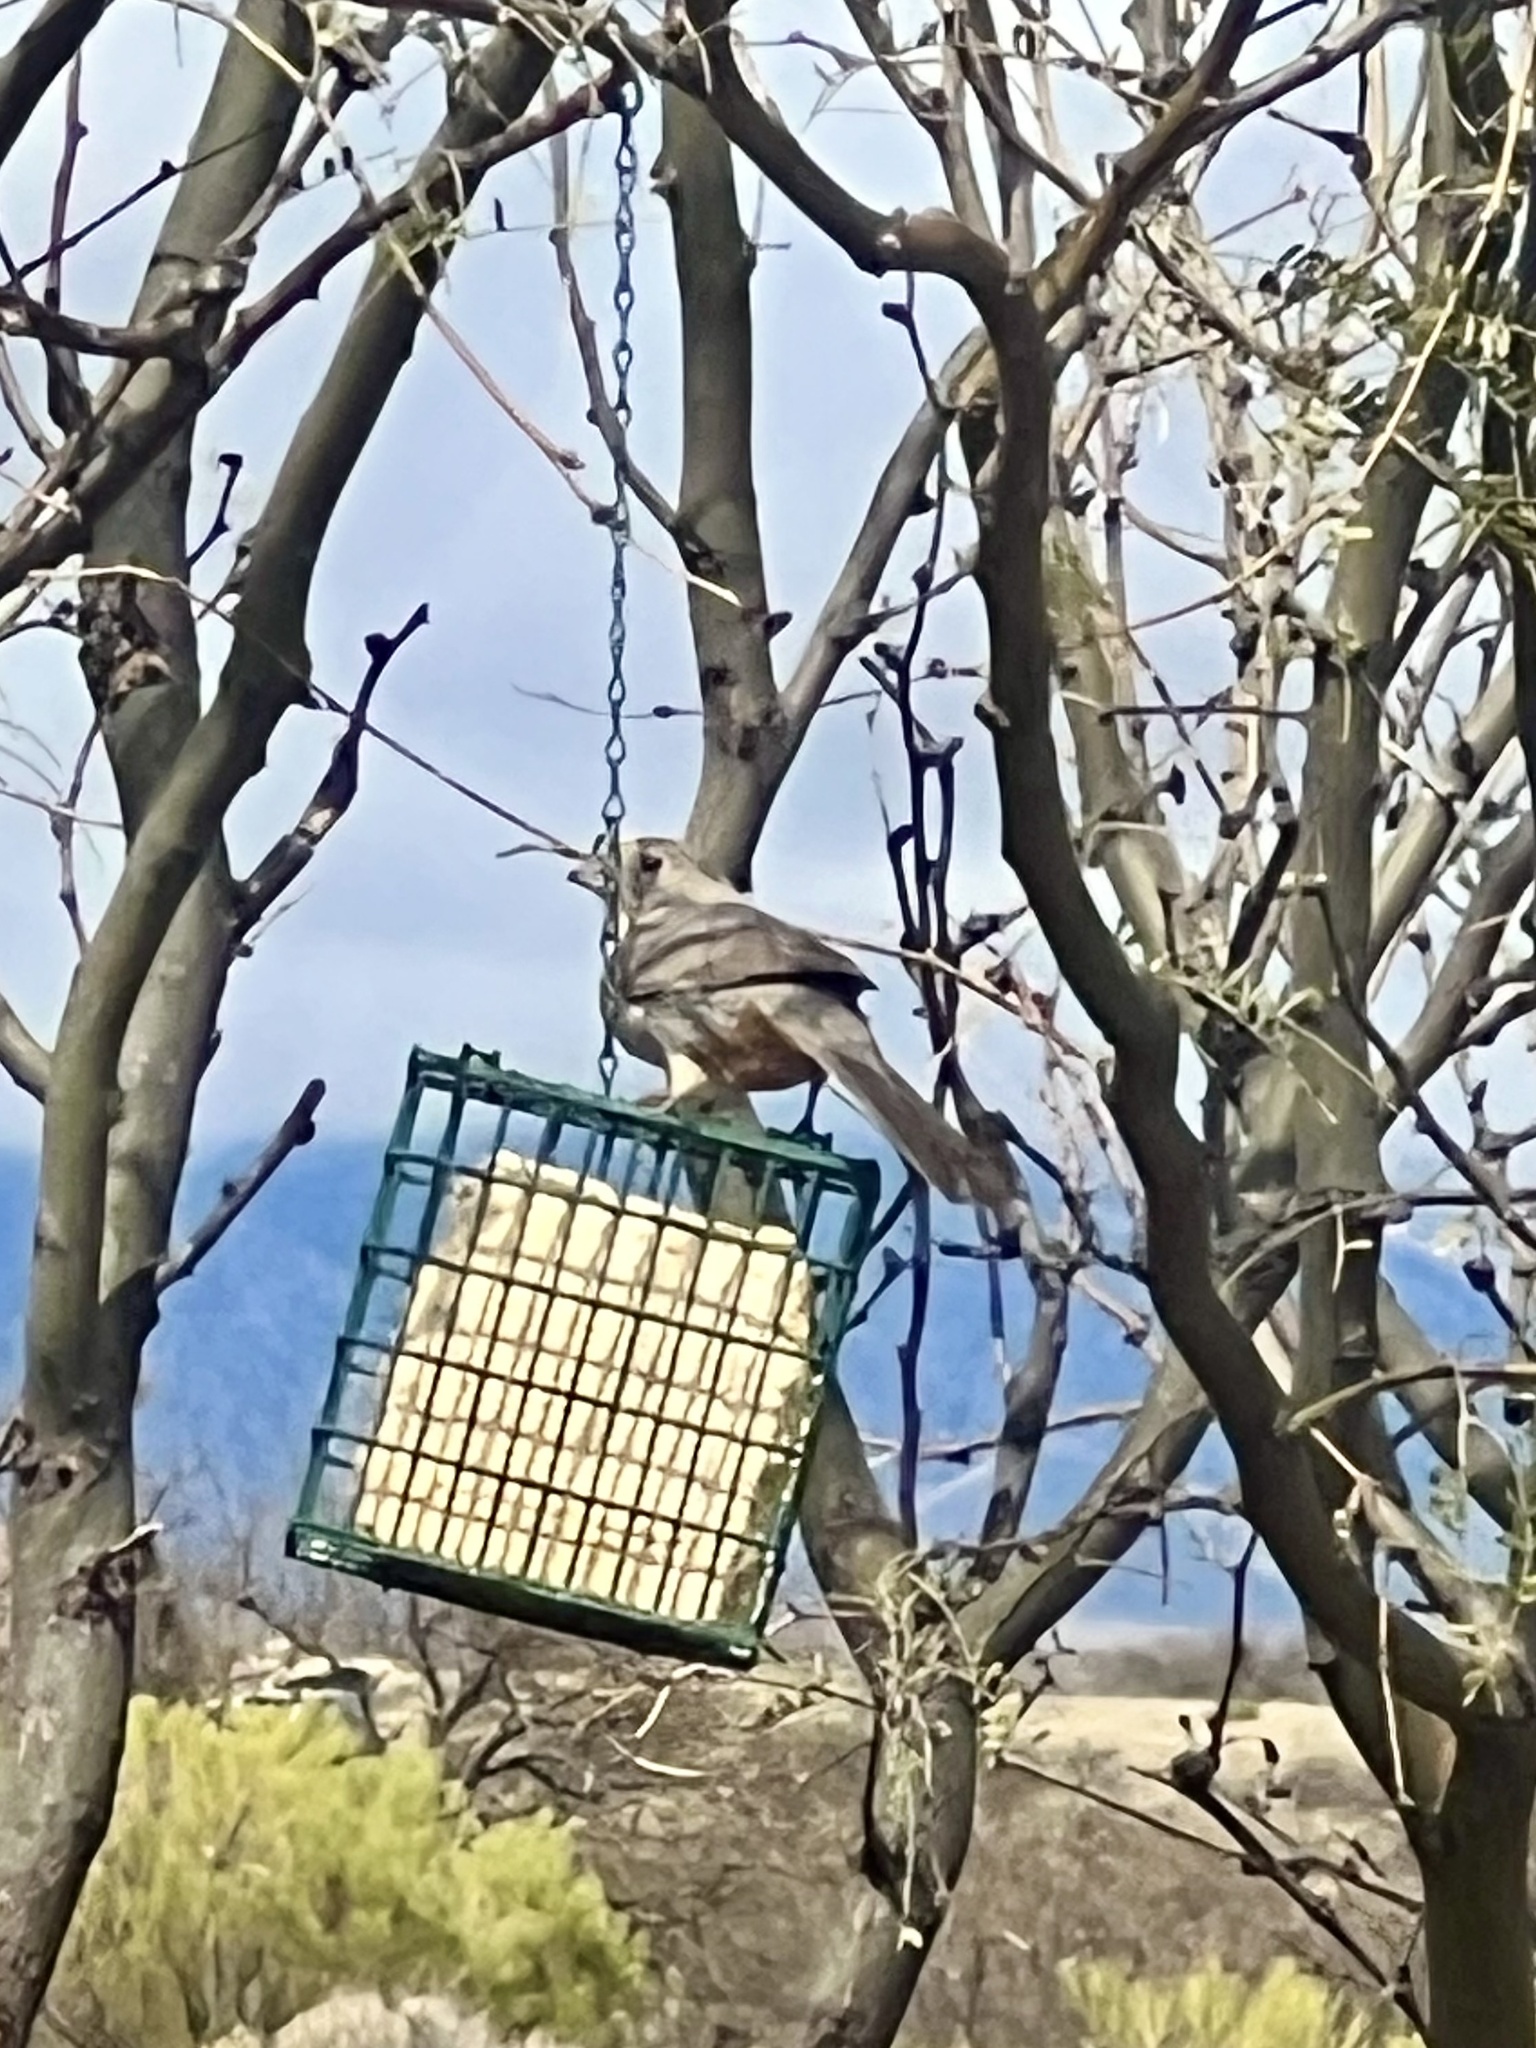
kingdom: Animalia
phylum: Chordata
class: Aves
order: Passeriformes
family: Passerellidae
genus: Melozone
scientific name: Melozone fusca
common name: Canyon towhee
